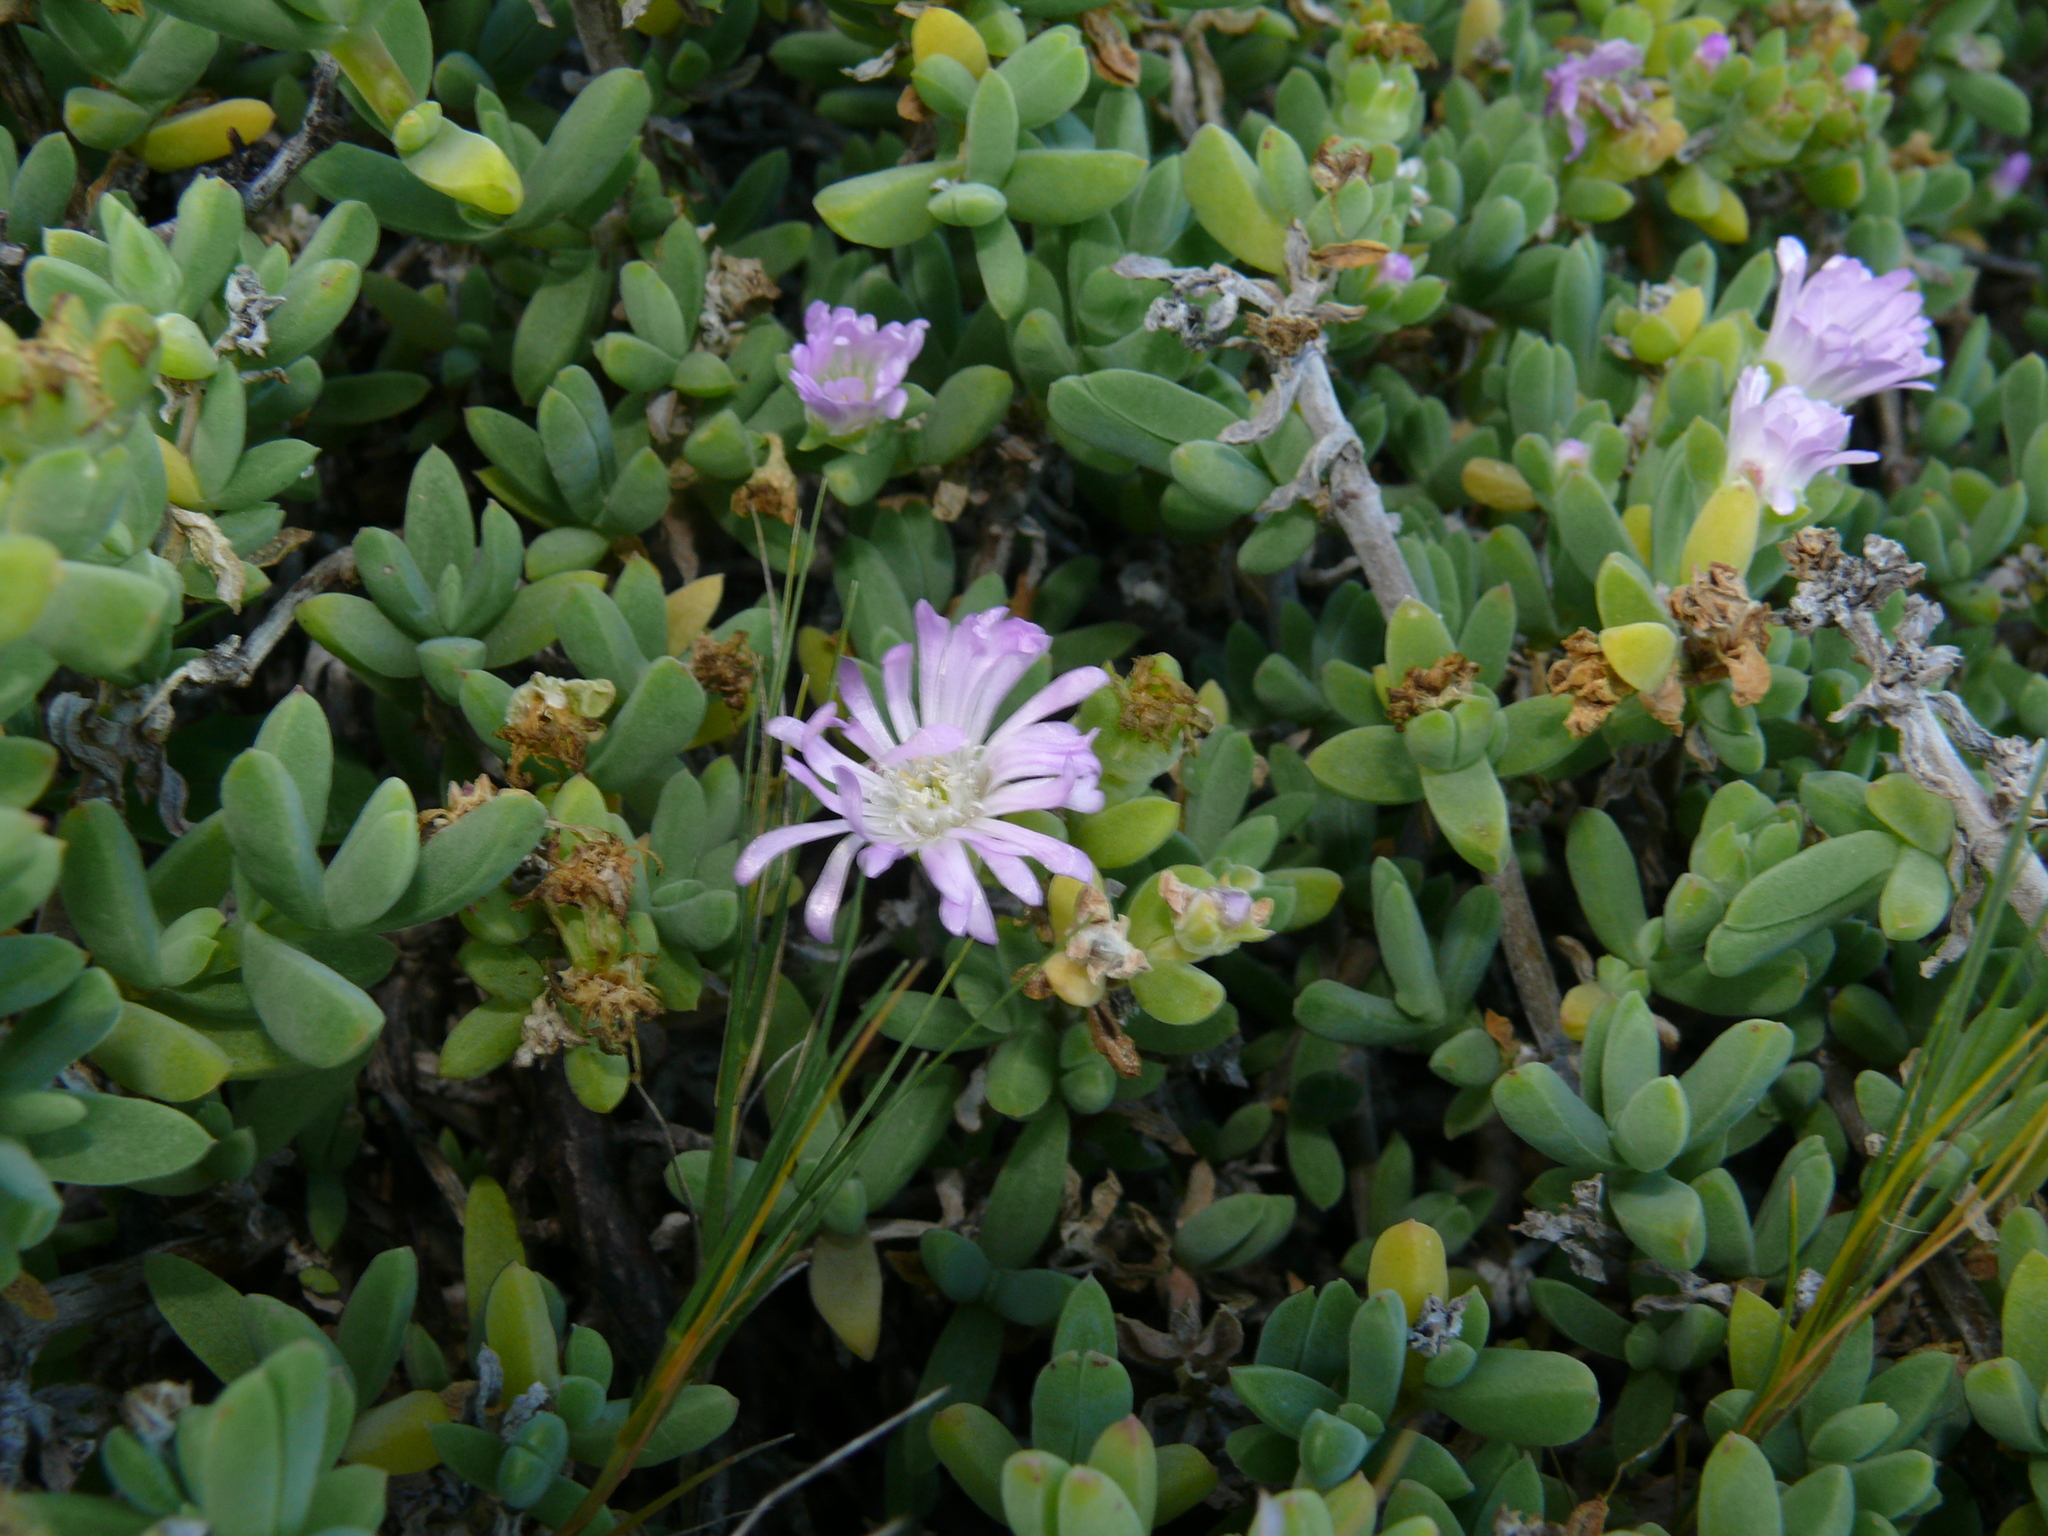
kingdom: Plantae
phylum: Tracheophyta
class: Magnoliopsida
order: Caryophyllales
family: Aizoaceae
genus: Delosperma
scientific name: Delosperma patersoniae
